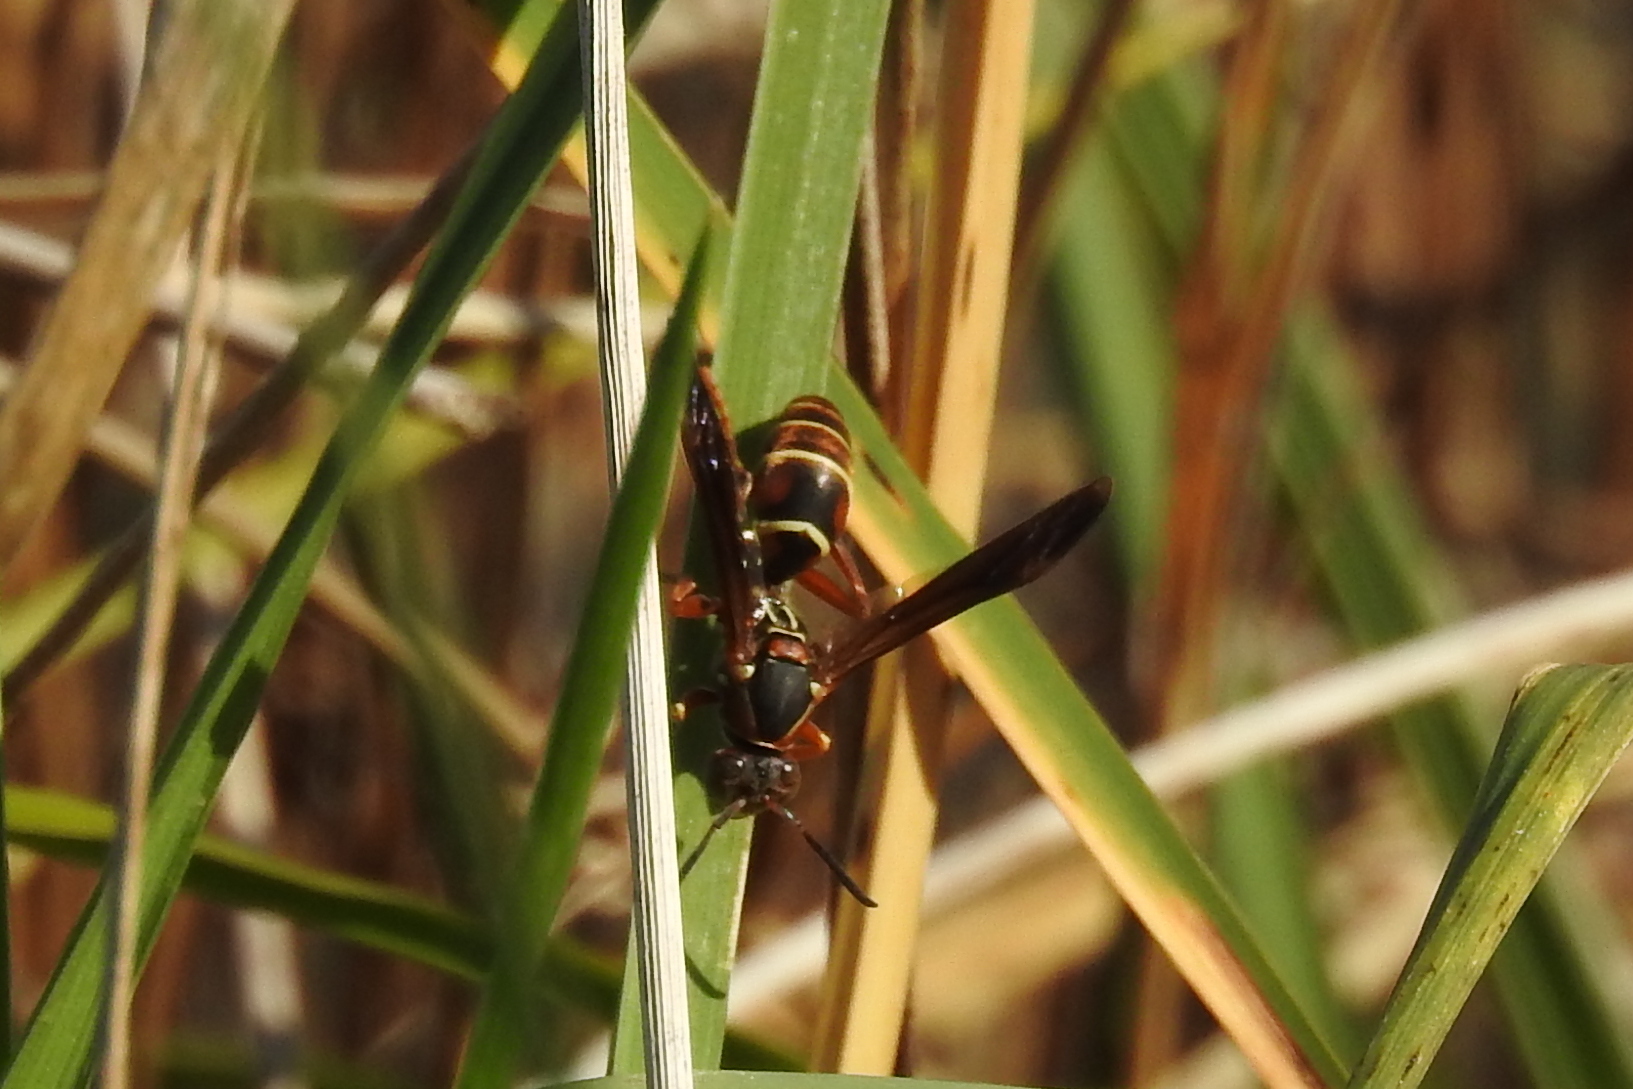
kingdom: Animalia
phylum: Arthropoda
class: Insecta
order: Hymenoptera
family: Vespidae
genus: Fuscopolistes
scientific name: Fuscopolistes
